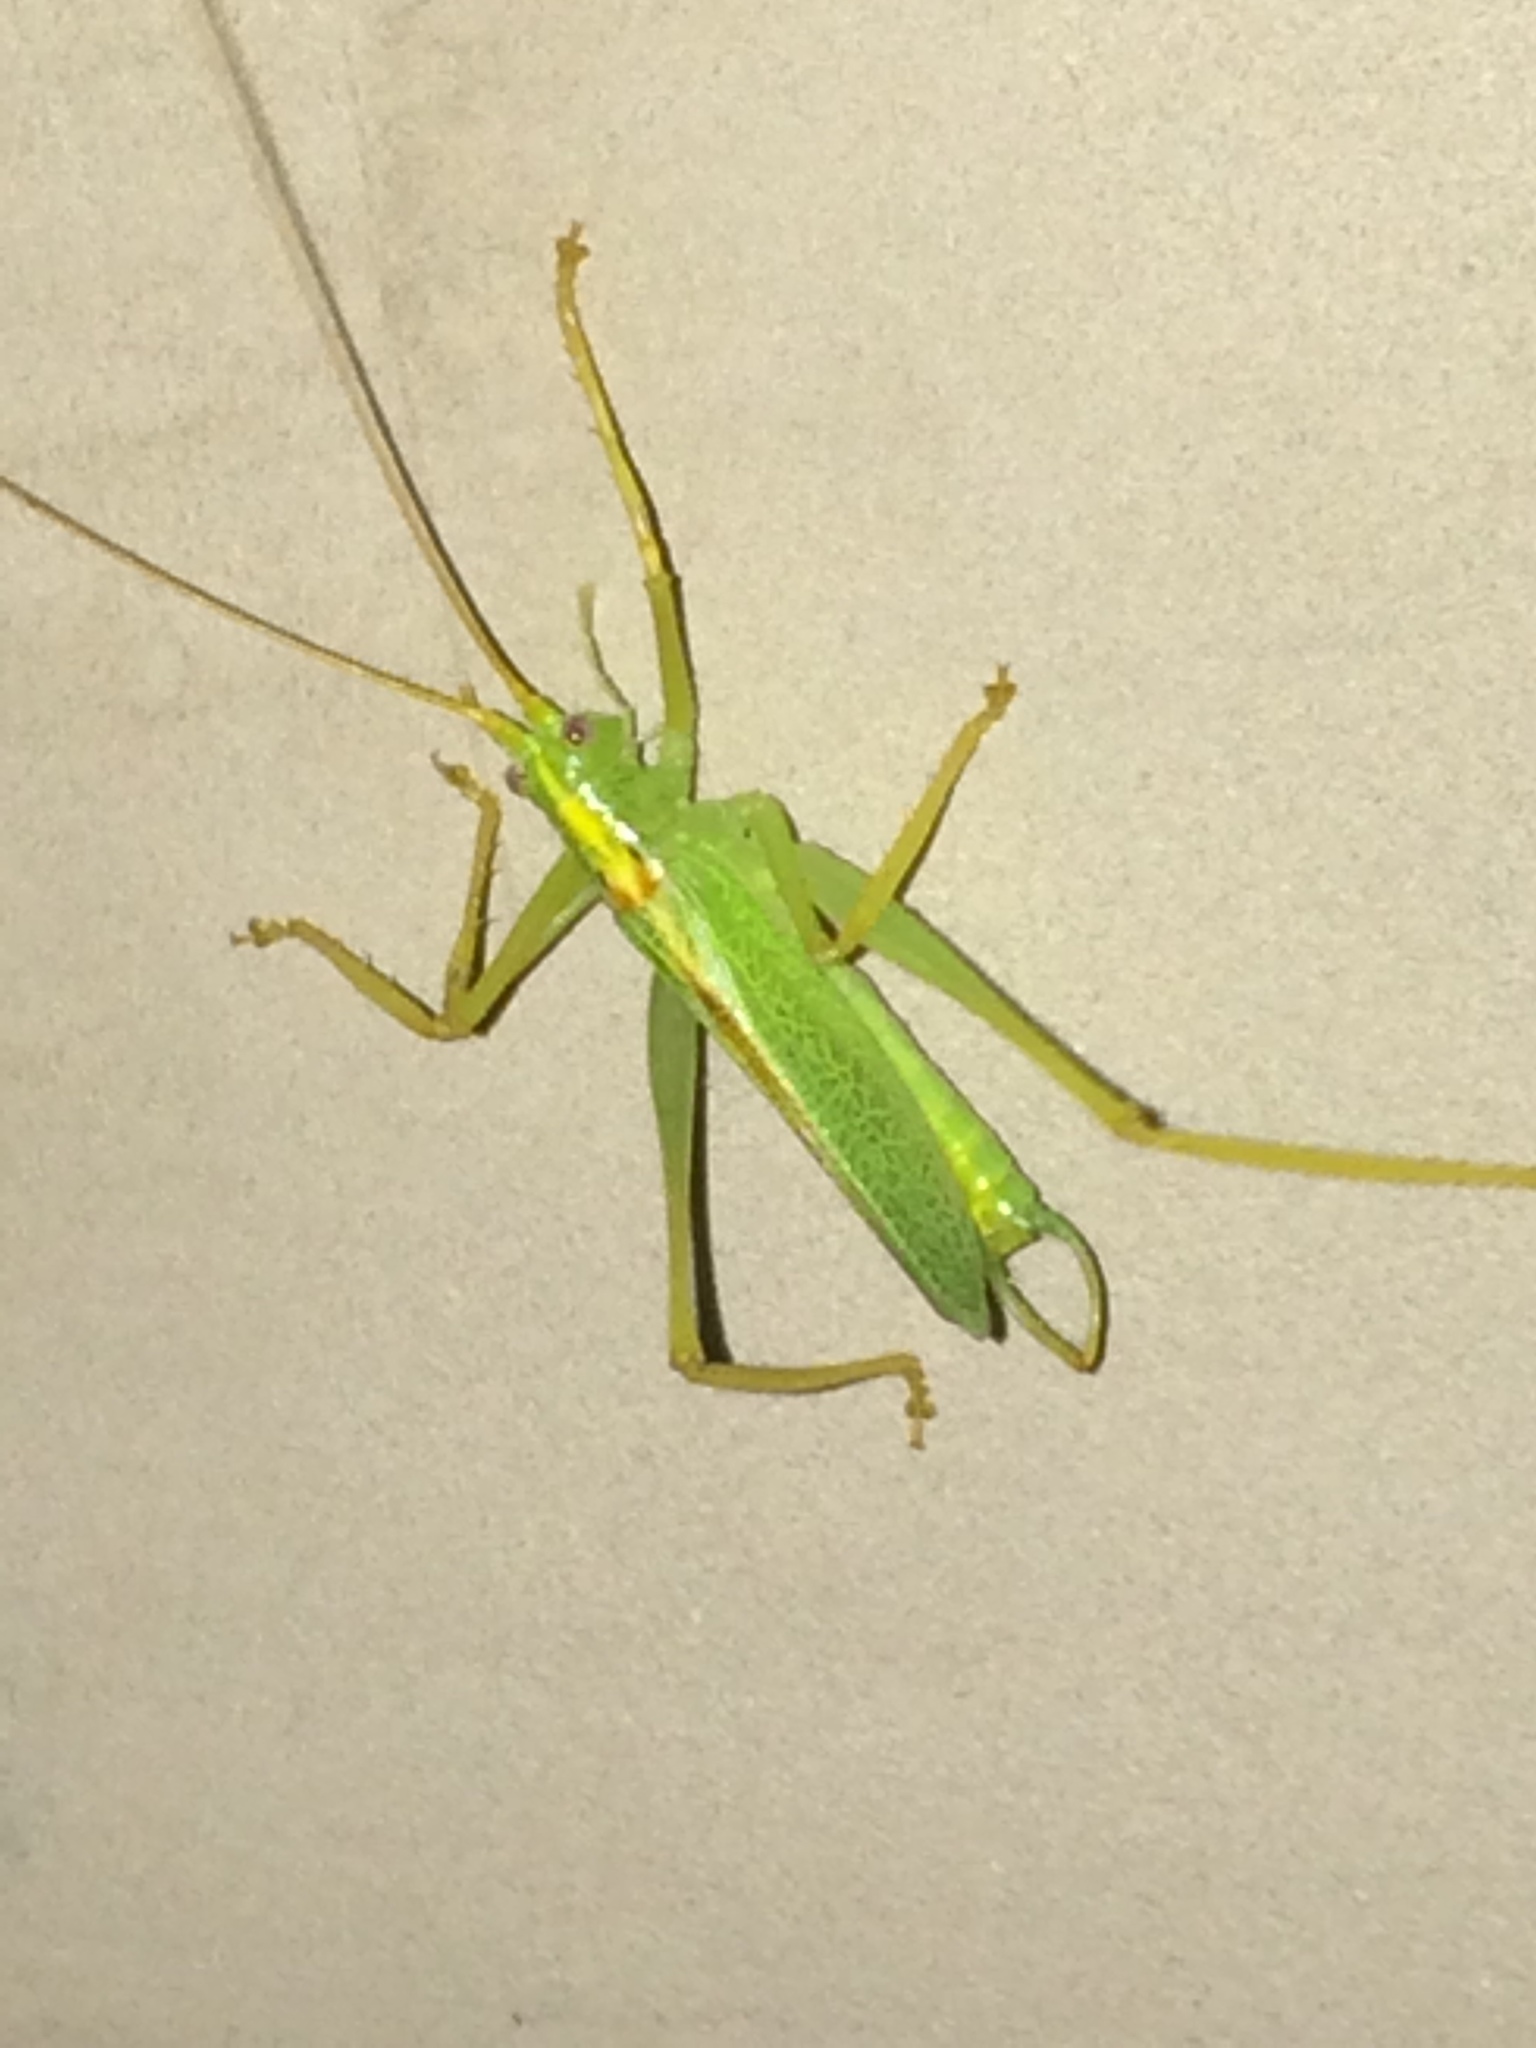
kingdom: Animalia
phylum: Arthropoda
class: Insecta
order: Orthoptera
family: Tettigoniidae
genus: Meconema
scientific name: Meconema thalassinum
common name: Oak bush-cricket
